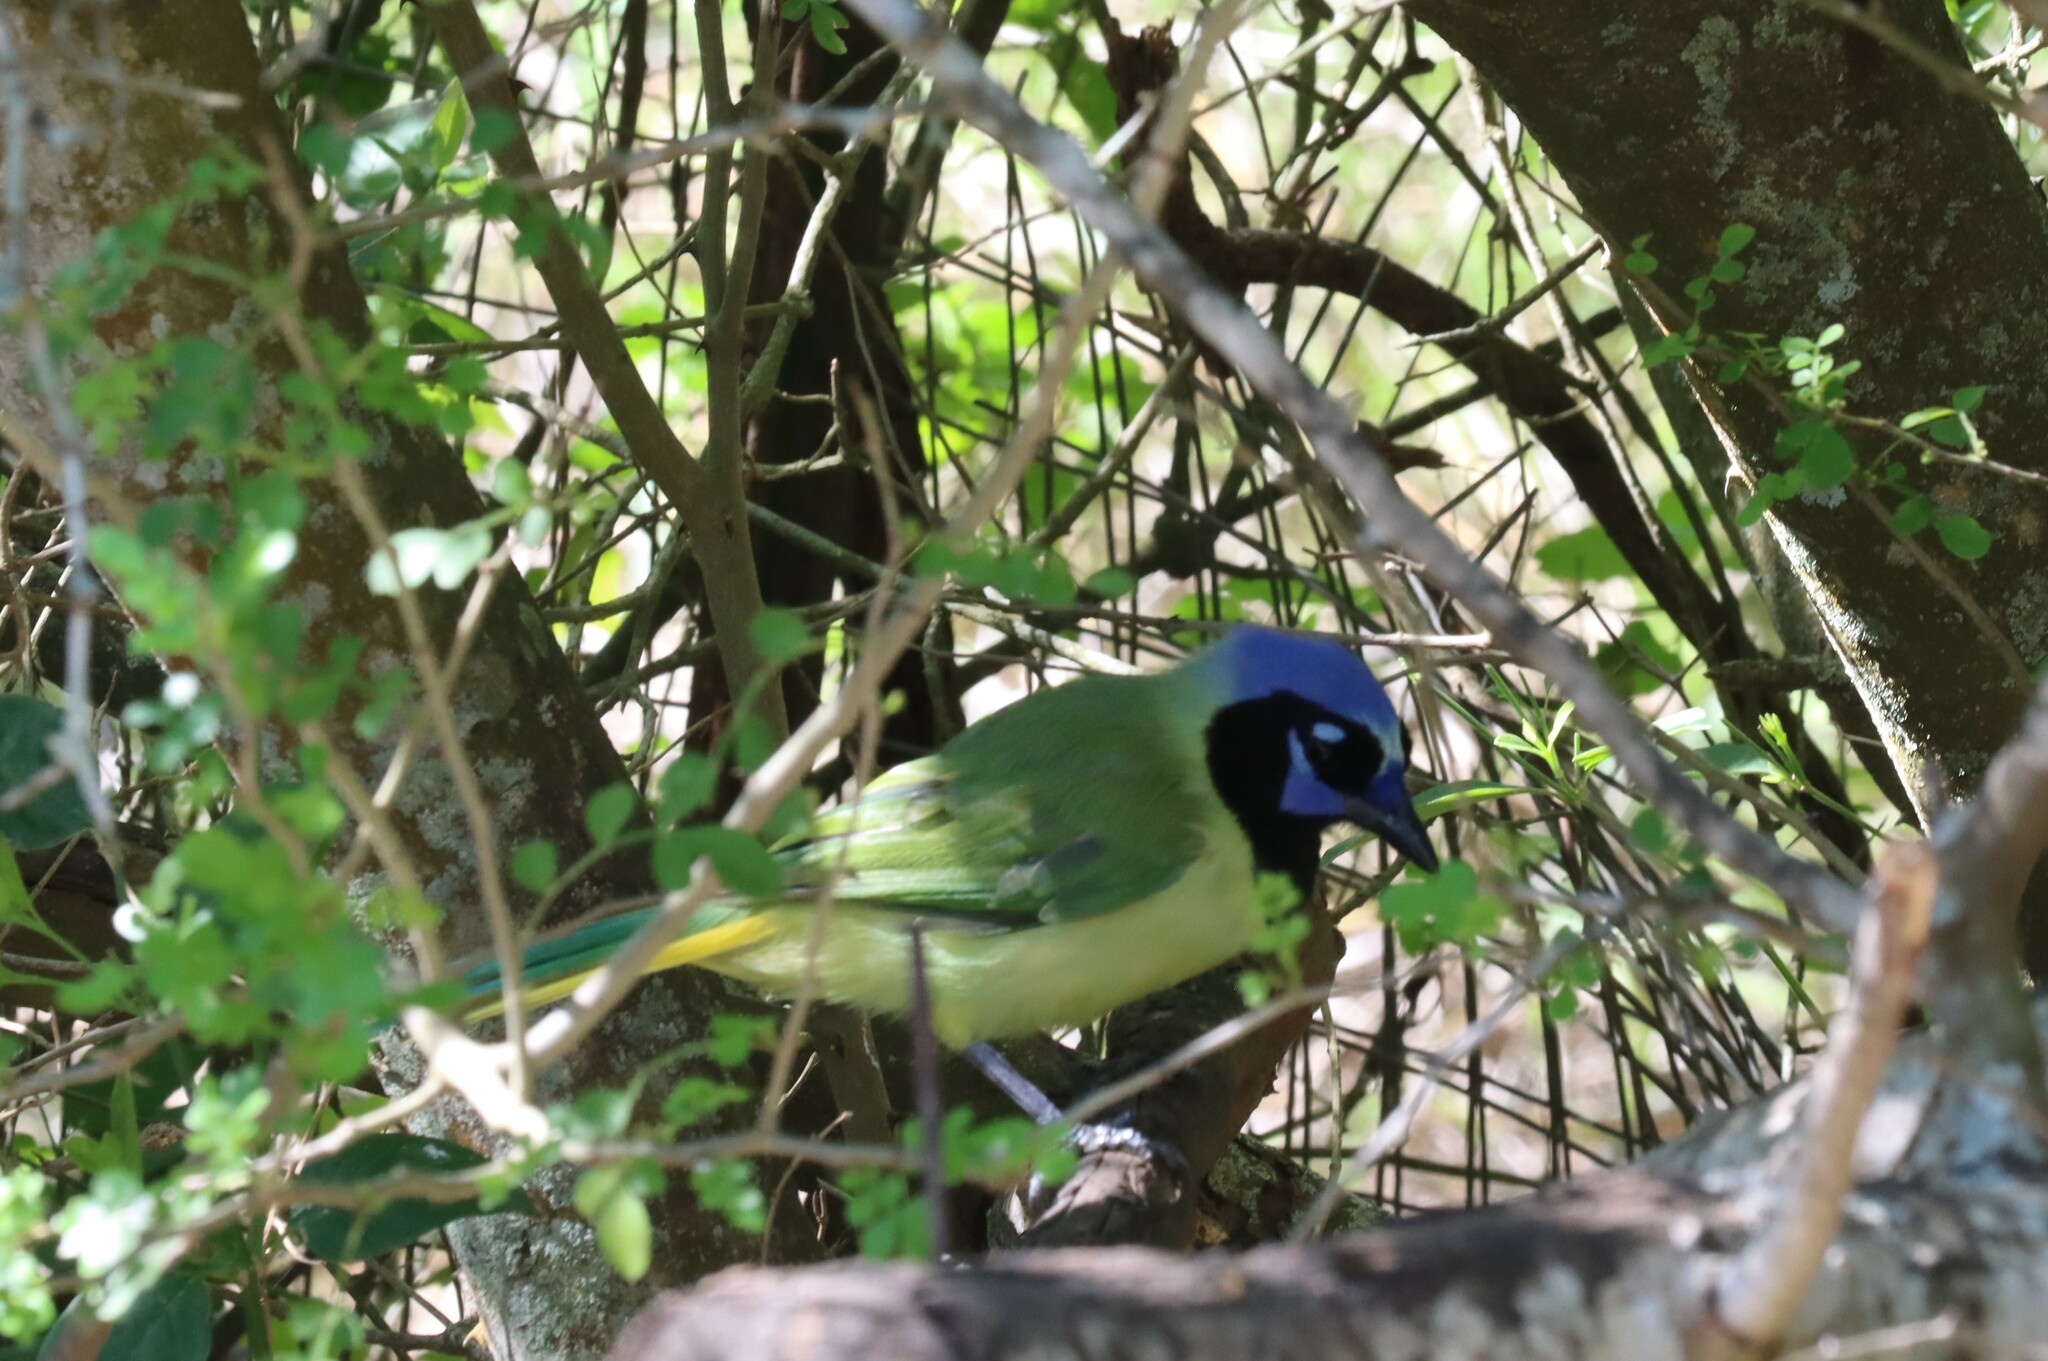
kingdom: Animalia
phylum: Chordata
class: Aves
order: Passeriformes
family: Corvidae
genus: Cyanocorax
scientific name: Cyanocorax yncas
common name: Green jay
